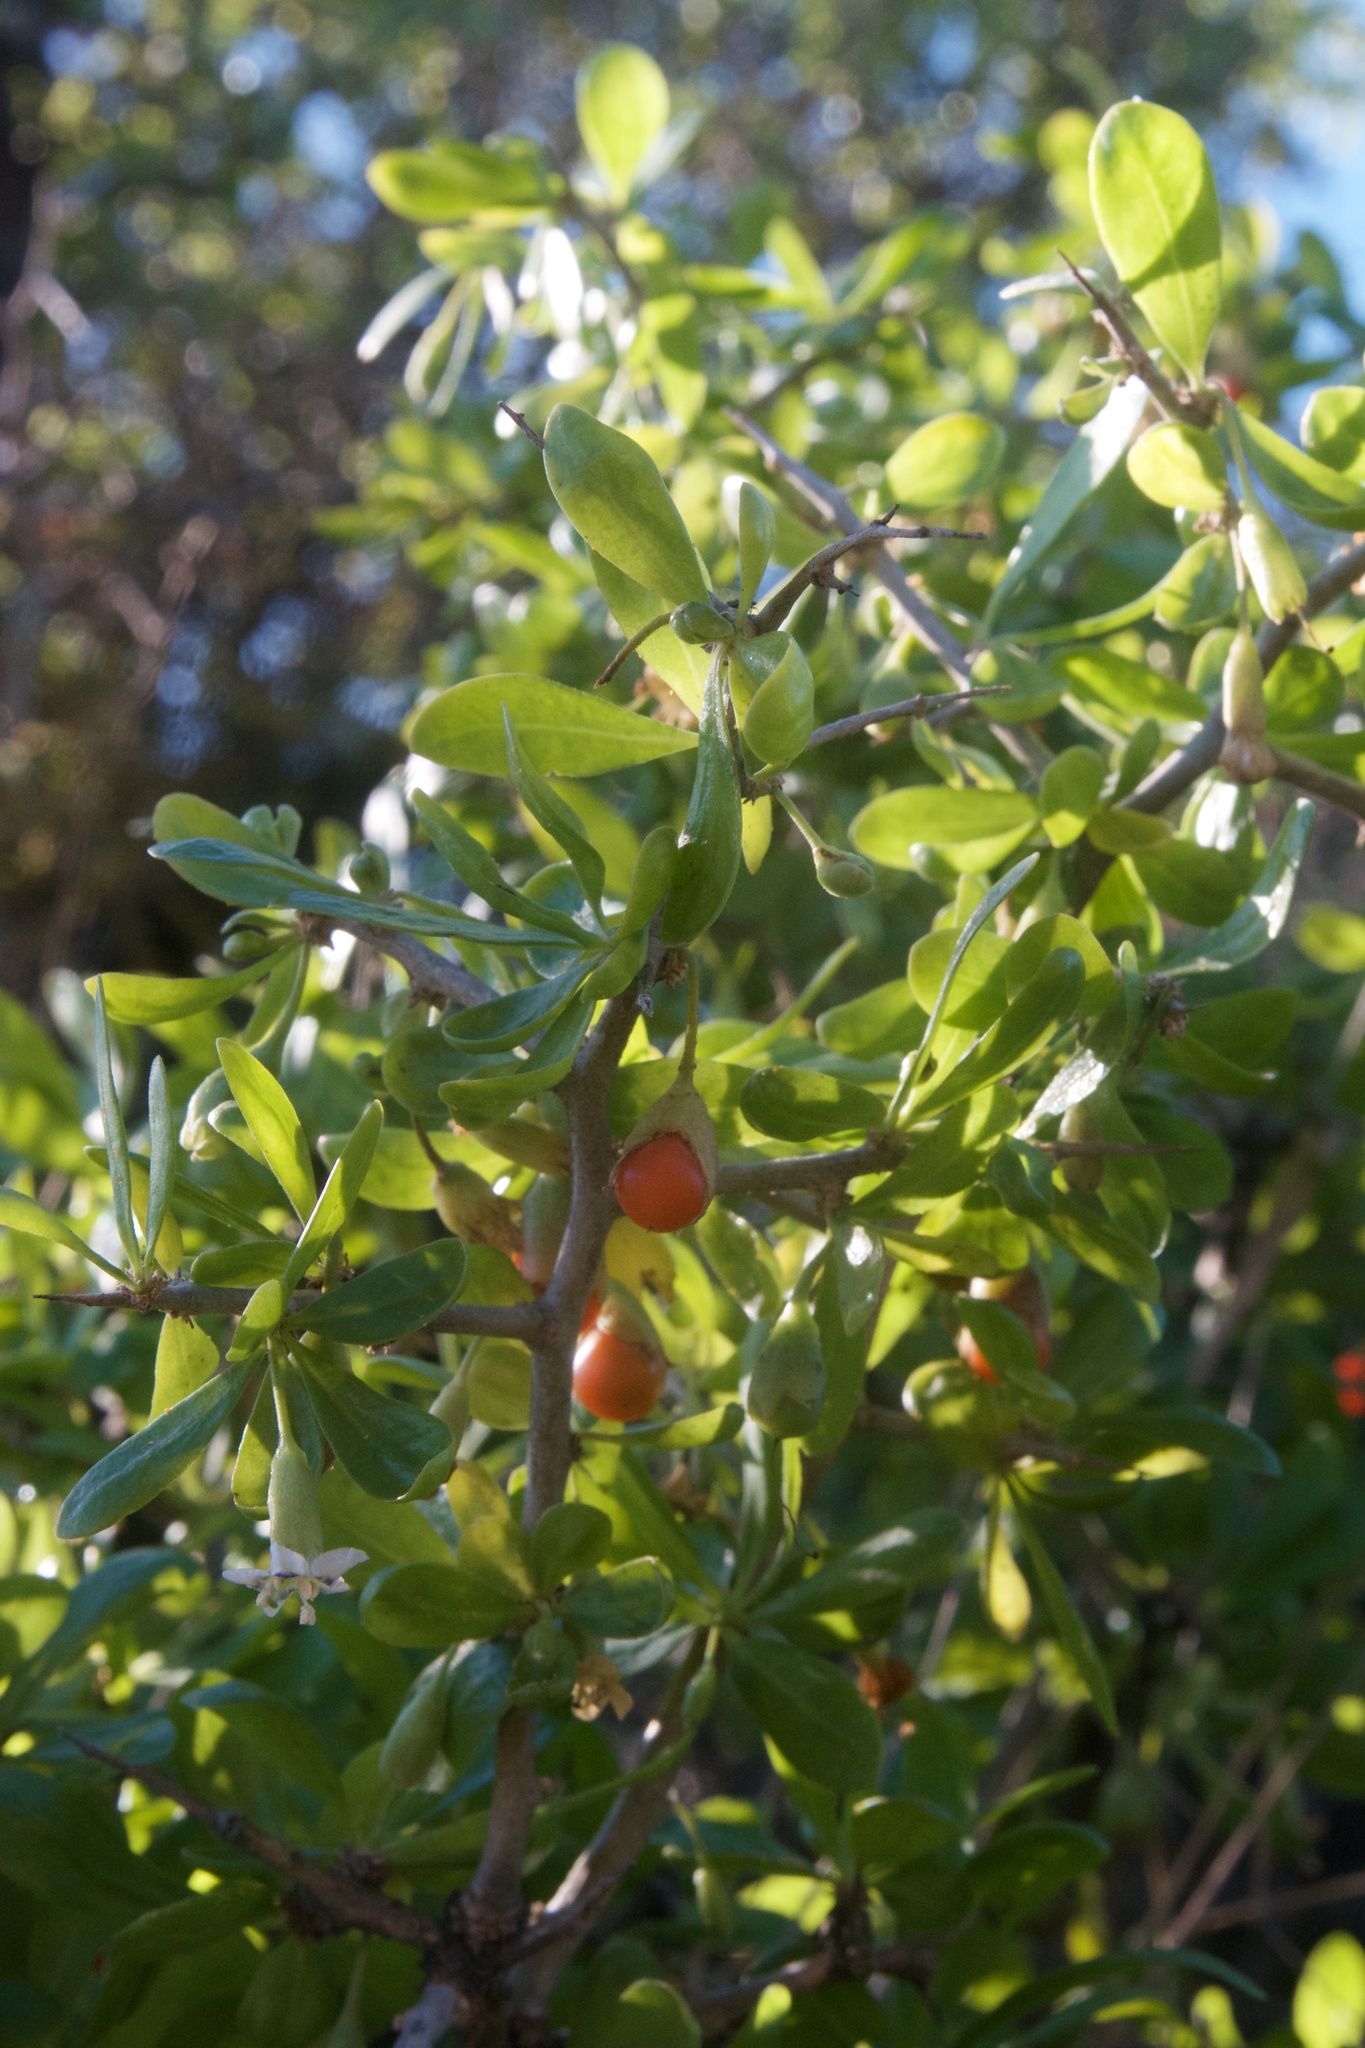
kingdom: Plantae
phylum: Tracheophyta
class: Magnoliopsida
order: Solanales
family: Solanaceae
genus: Lycium
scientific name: Lycium ferocissimum
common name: African boxthorn
